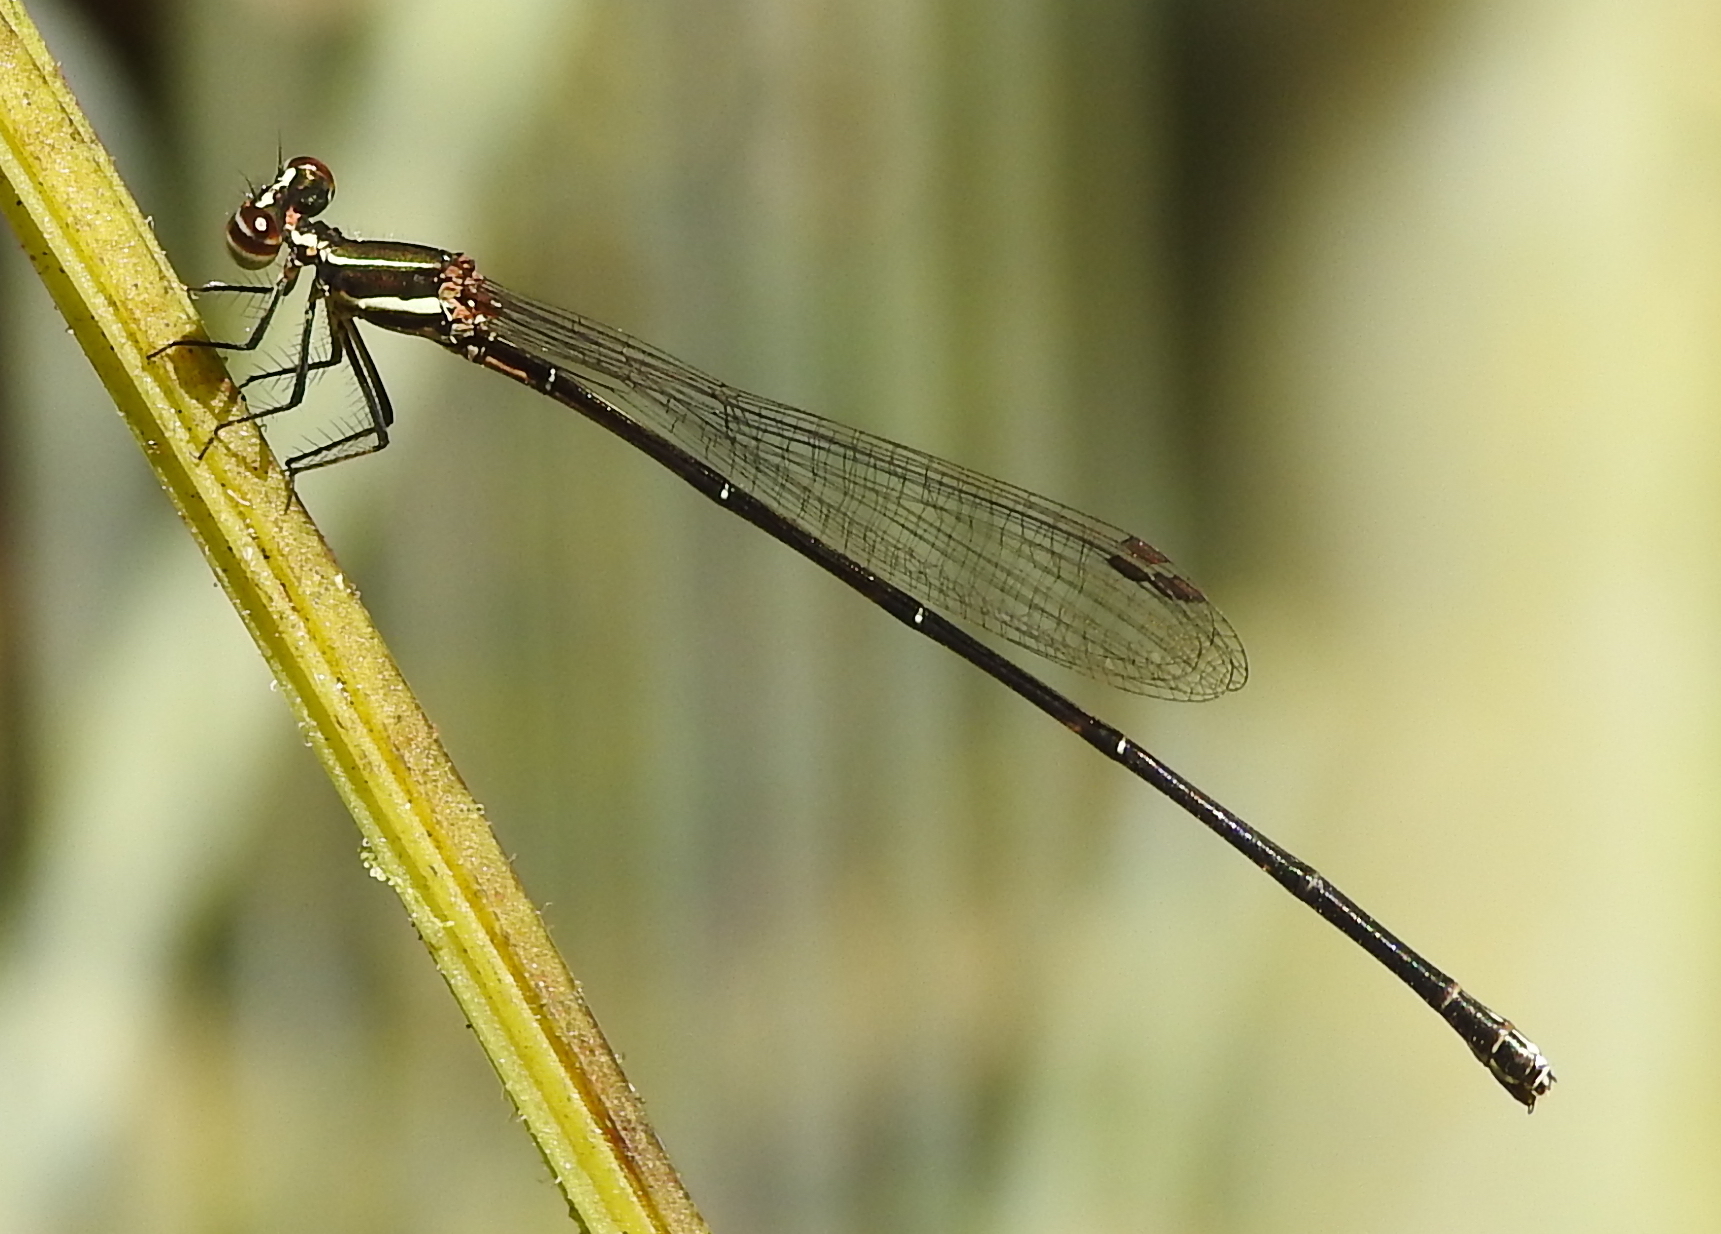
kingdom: Animalia
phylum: Arthropoda
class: Insecta
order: Odonata
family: Platycnemididae
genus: Prodasineura
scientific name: Prodasineura autumnalis
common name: Black threadtail
